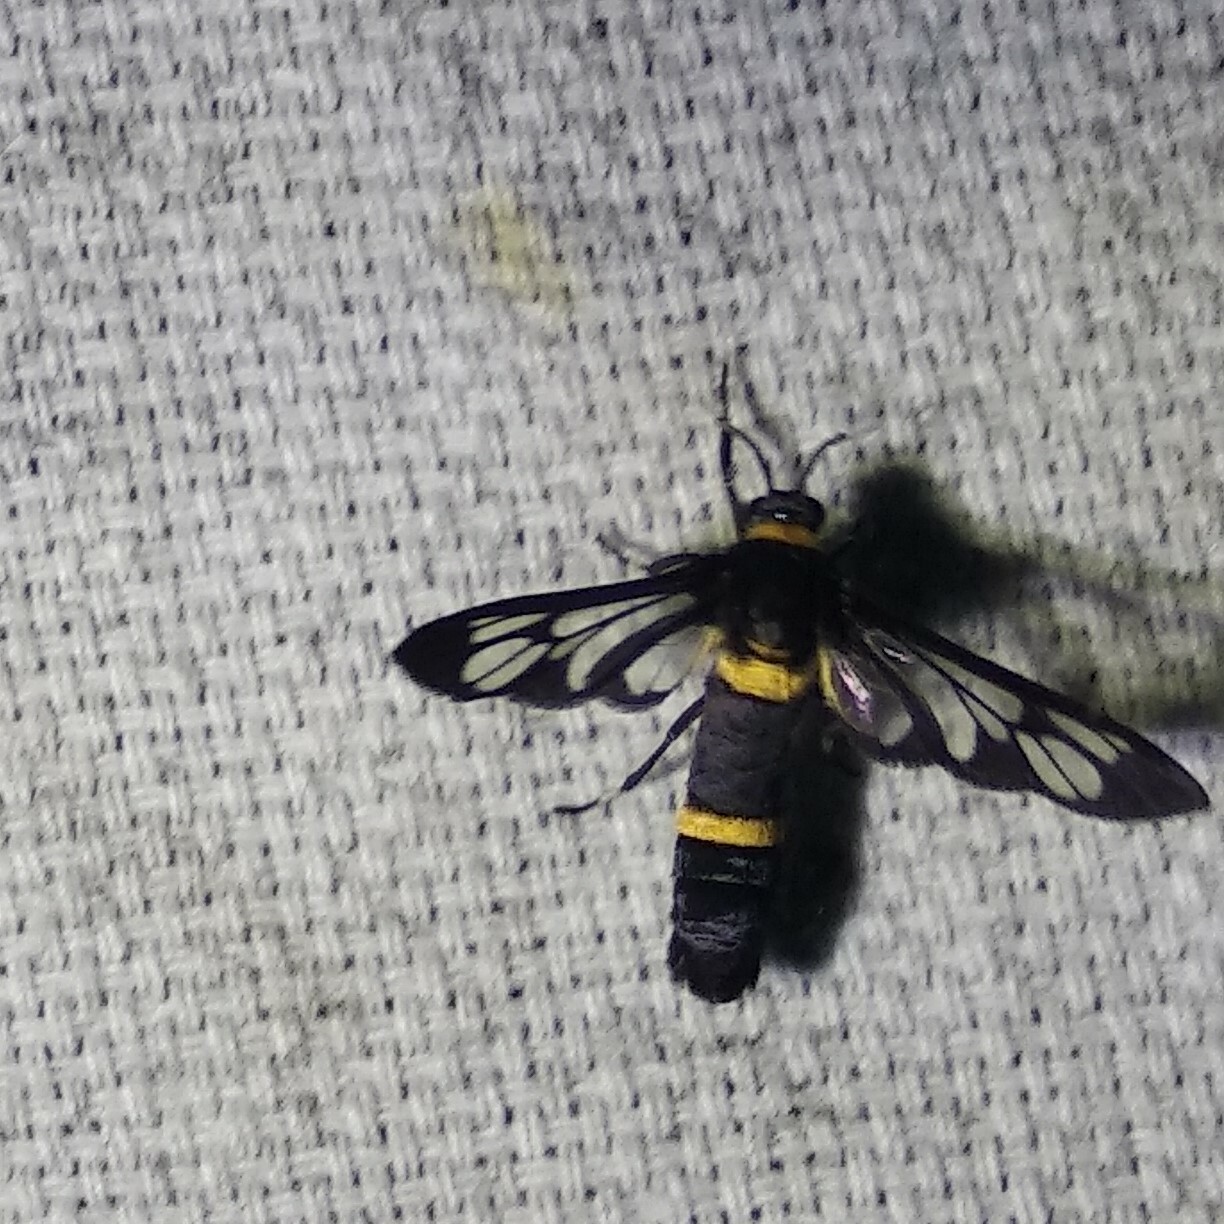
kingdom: Animalia
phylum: Arthropoda
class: Insecta
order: Lepidoptera
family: Erebidae
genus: Syntomoides
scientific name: Syntomoides imaon
